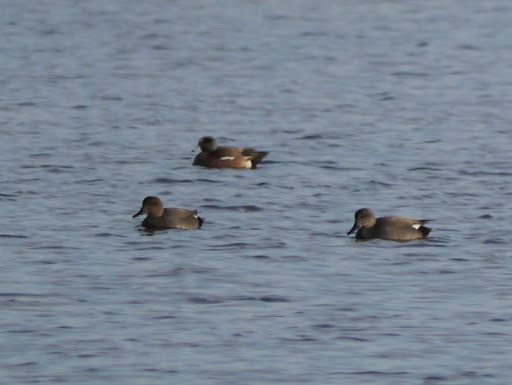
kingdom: Animalia
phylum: Chordata
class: Aves
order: Anseriformes
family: Anatidae
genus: Mareca
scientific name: Mareca americana
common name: American wigeon
